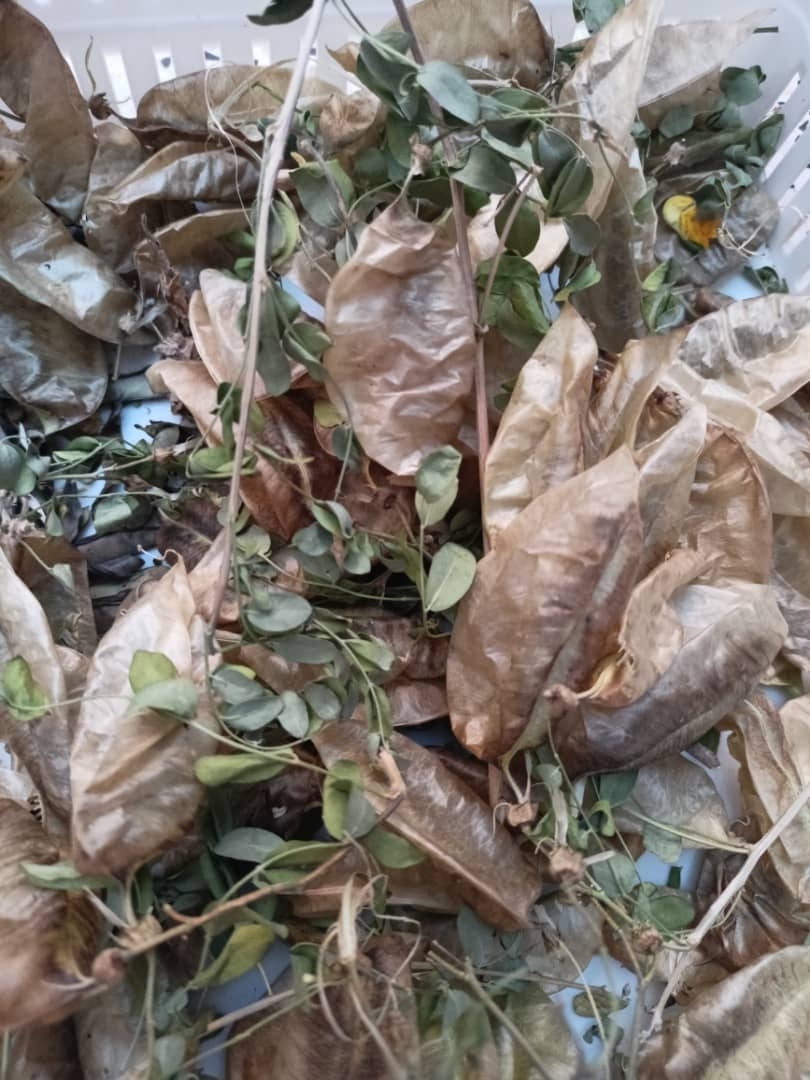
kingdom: Plantae
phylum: Tracheophyta
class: Magnoliopsida
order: Fabales
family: Fabaceae
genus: Colutea
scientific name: Colutea arborescens
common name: Bladder-senna
